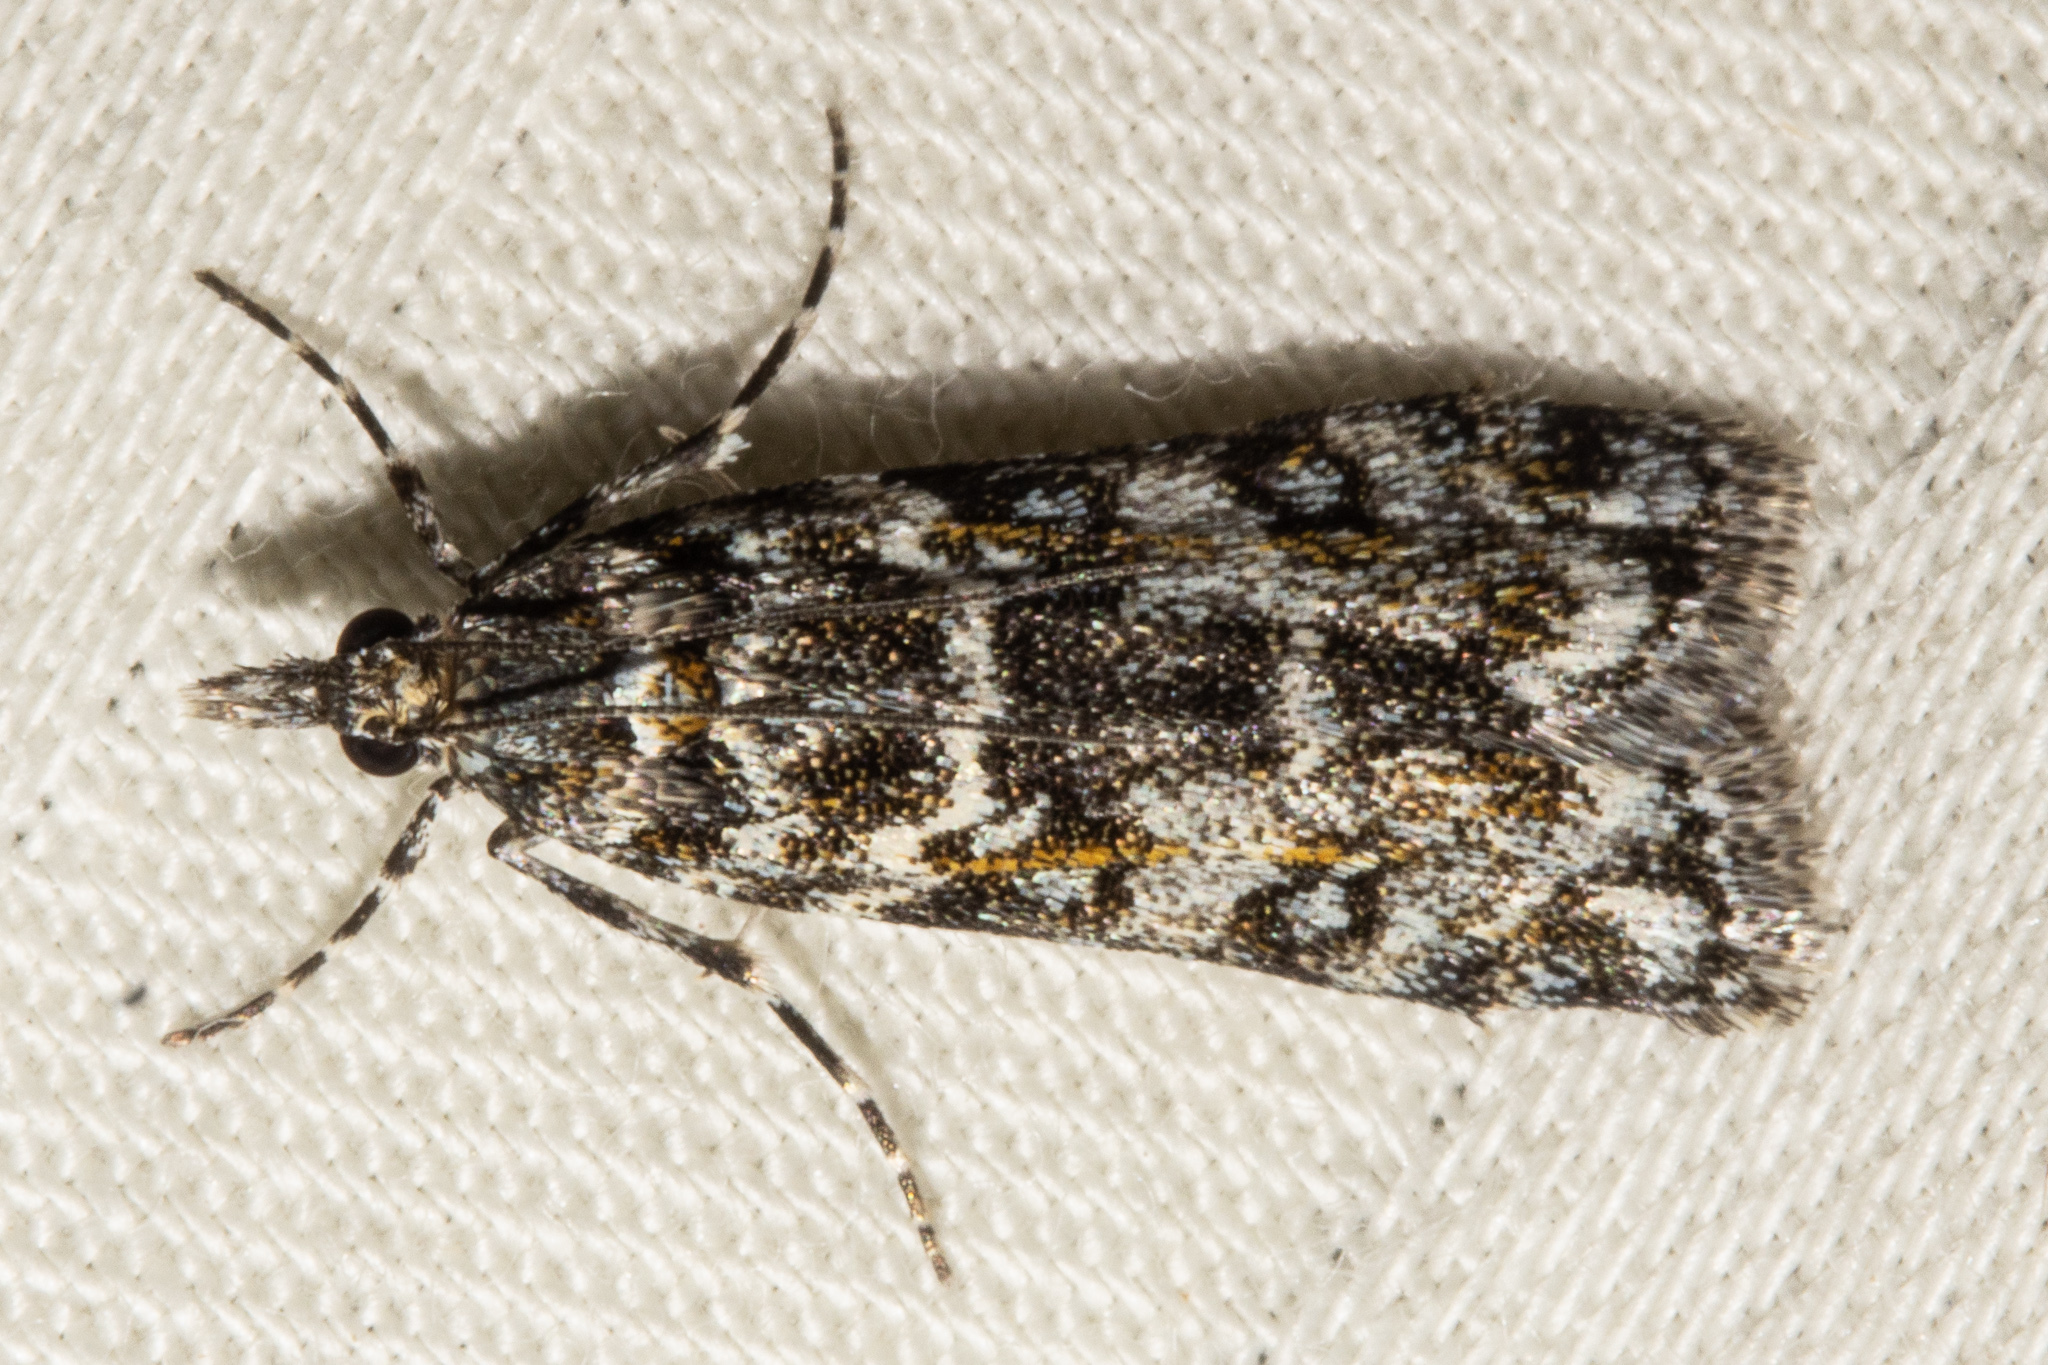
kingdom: Animalia
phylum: Arthropoda
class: Insecta
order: Lepidoptera
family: Crambidae
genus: Eudonia
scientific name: Eudonia
